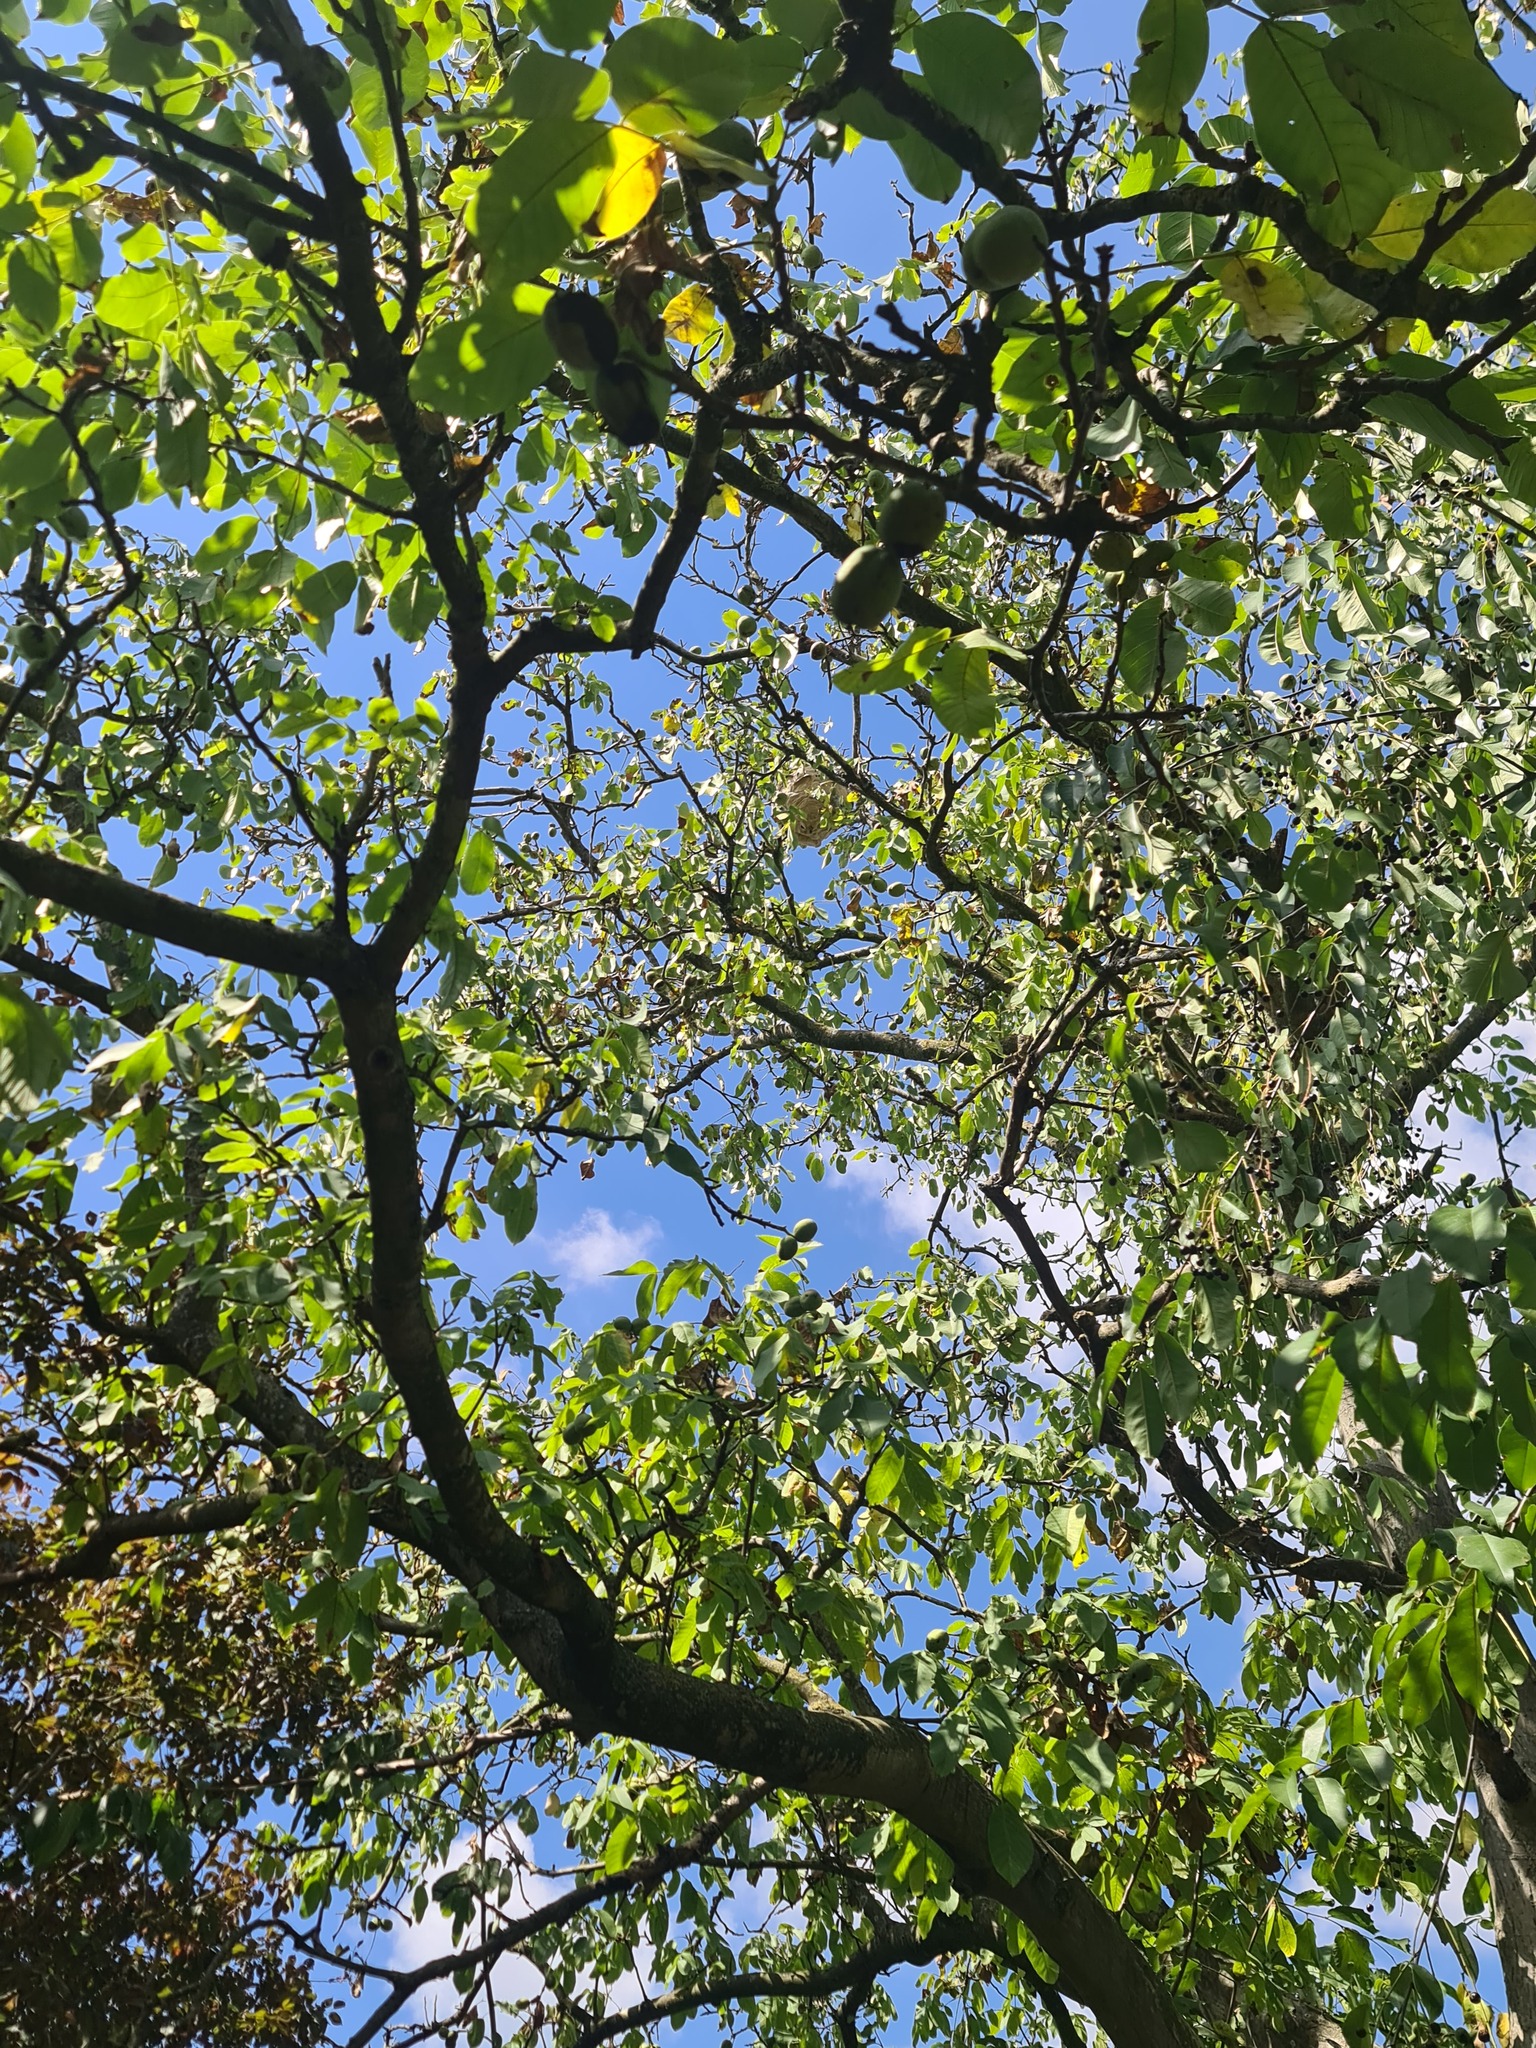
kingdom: Animalia
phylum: Arthropoda
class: Insecta
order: Hymenoptera
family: Vespidae
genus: Vespa
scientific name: Vespa velutina
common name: Asian hornet
